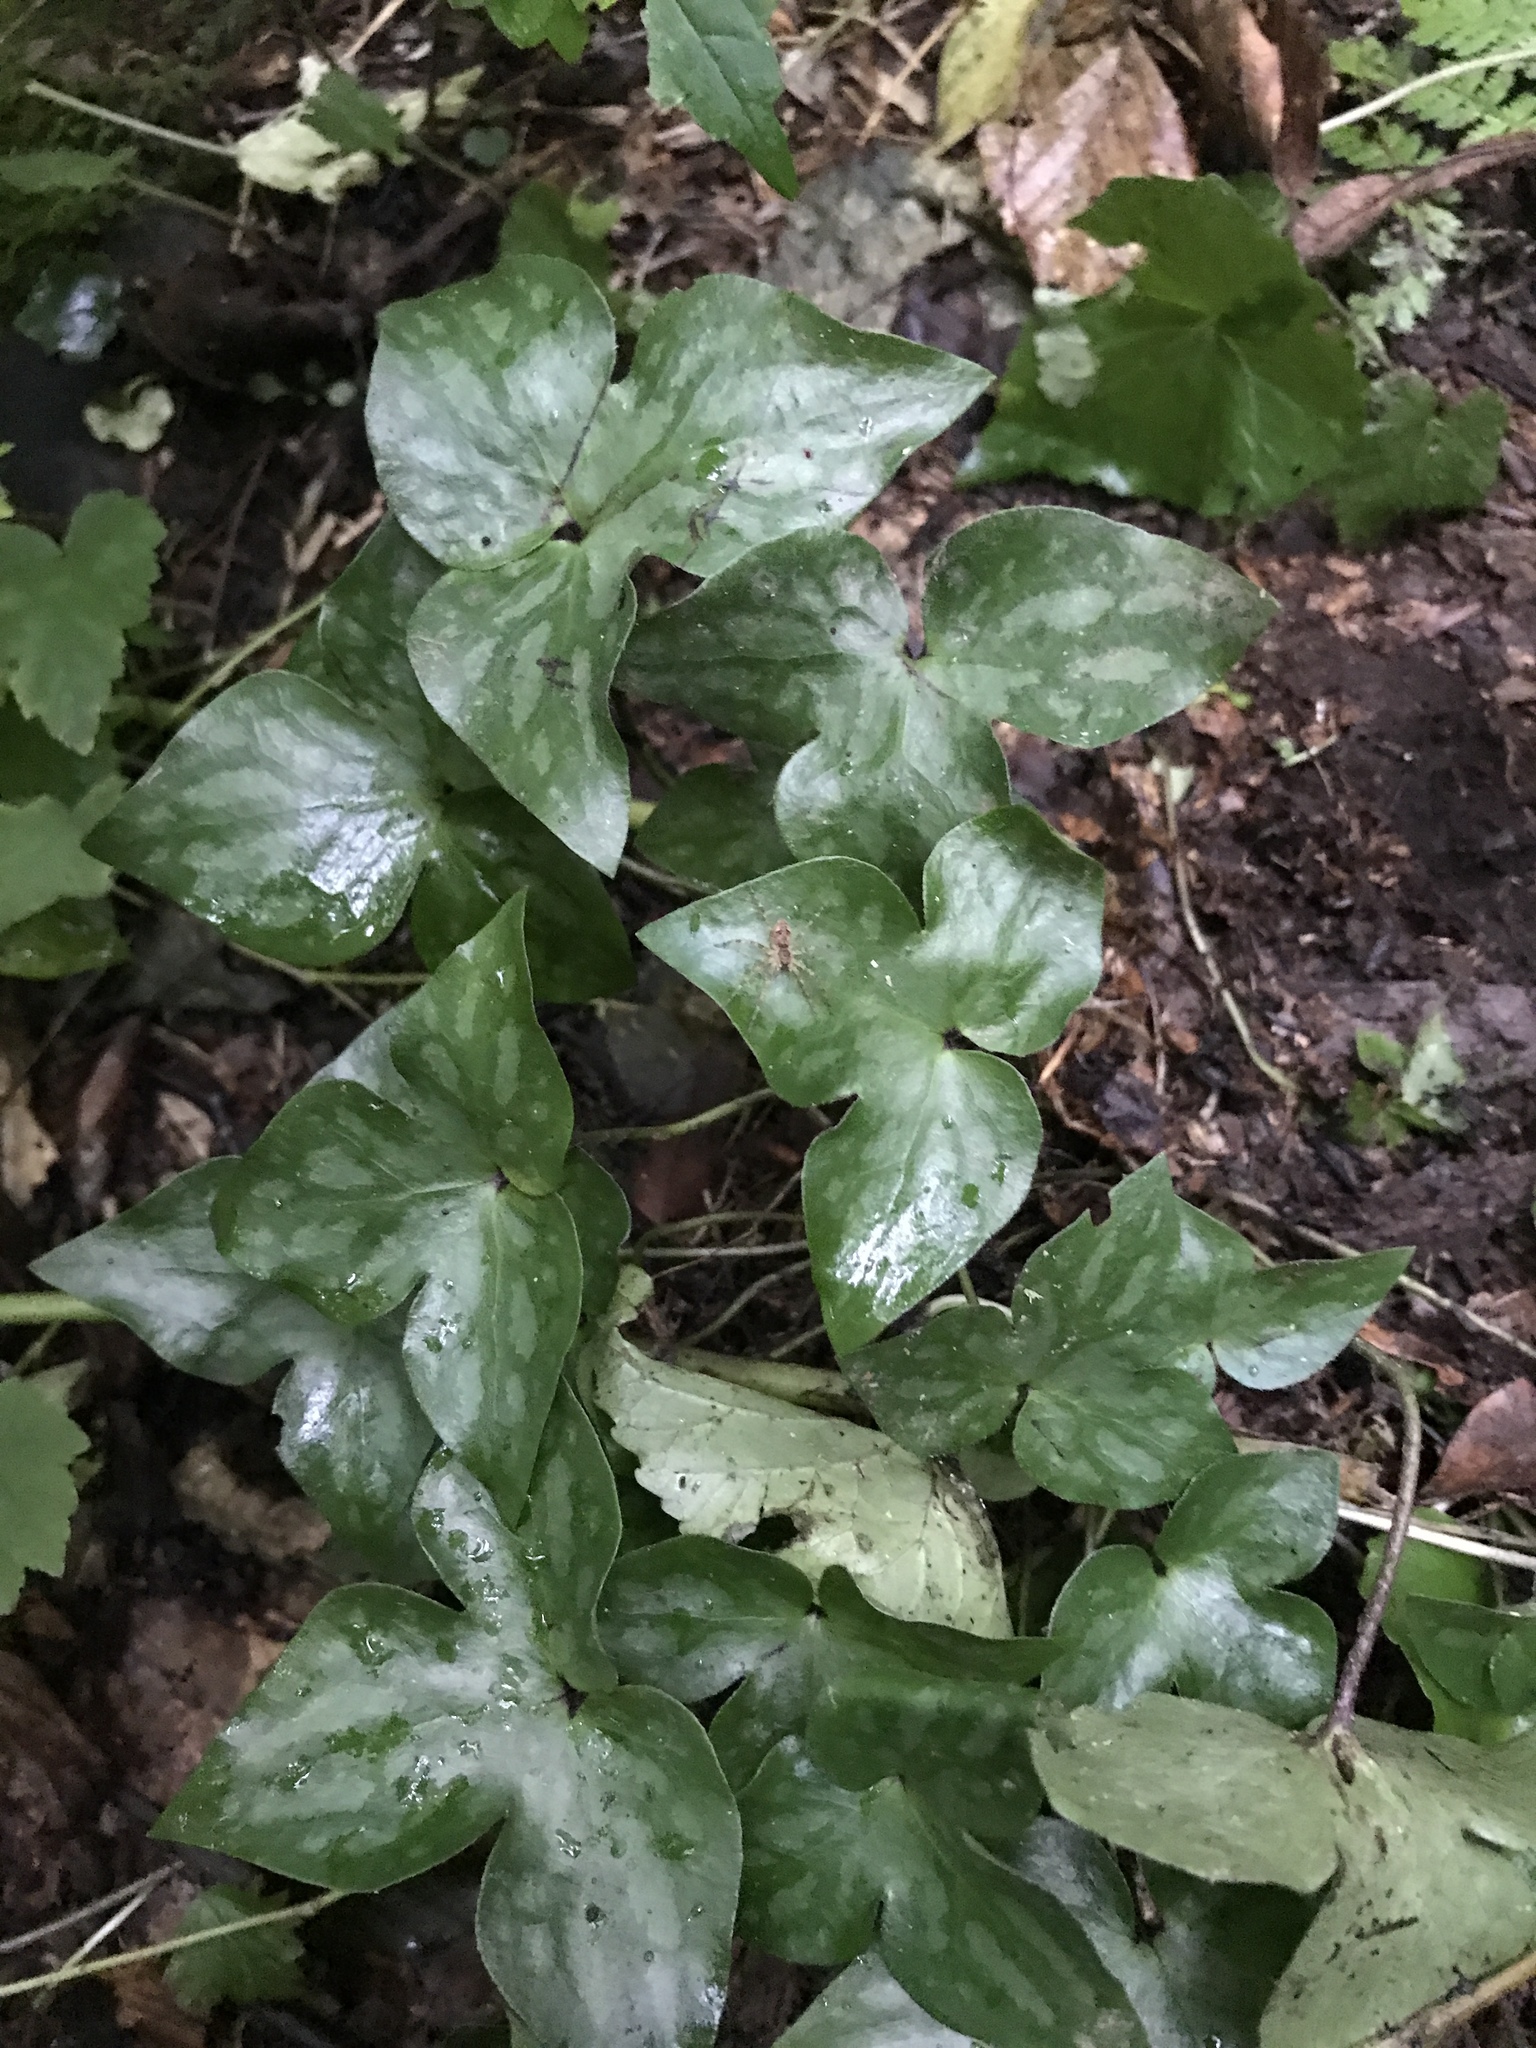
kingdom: Plantae
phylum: Tracheophyta
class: Magnoliopsida
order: Ranunculales
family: Ranunculaceae
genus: Hepatica
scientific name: Hepatica acutiloba
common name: Sharp-lobed hepatica
